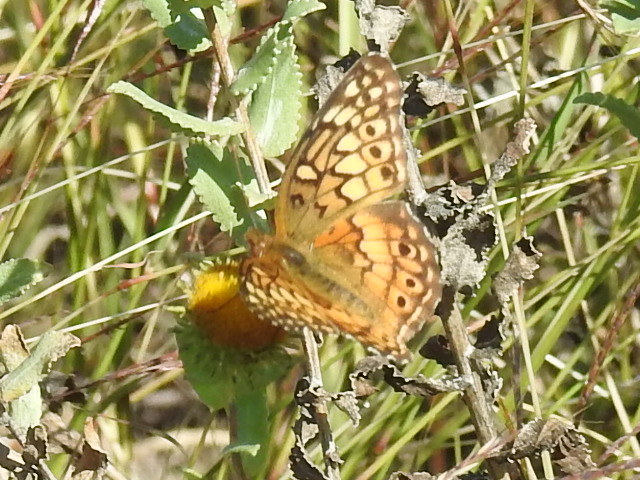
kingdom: Animalia
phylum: Arthropoda
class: Insecta
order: Lepidoptera
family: Nymphalidae
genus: Euptoieta
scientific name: Euptoieta claudia
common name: Variegated fritillary
